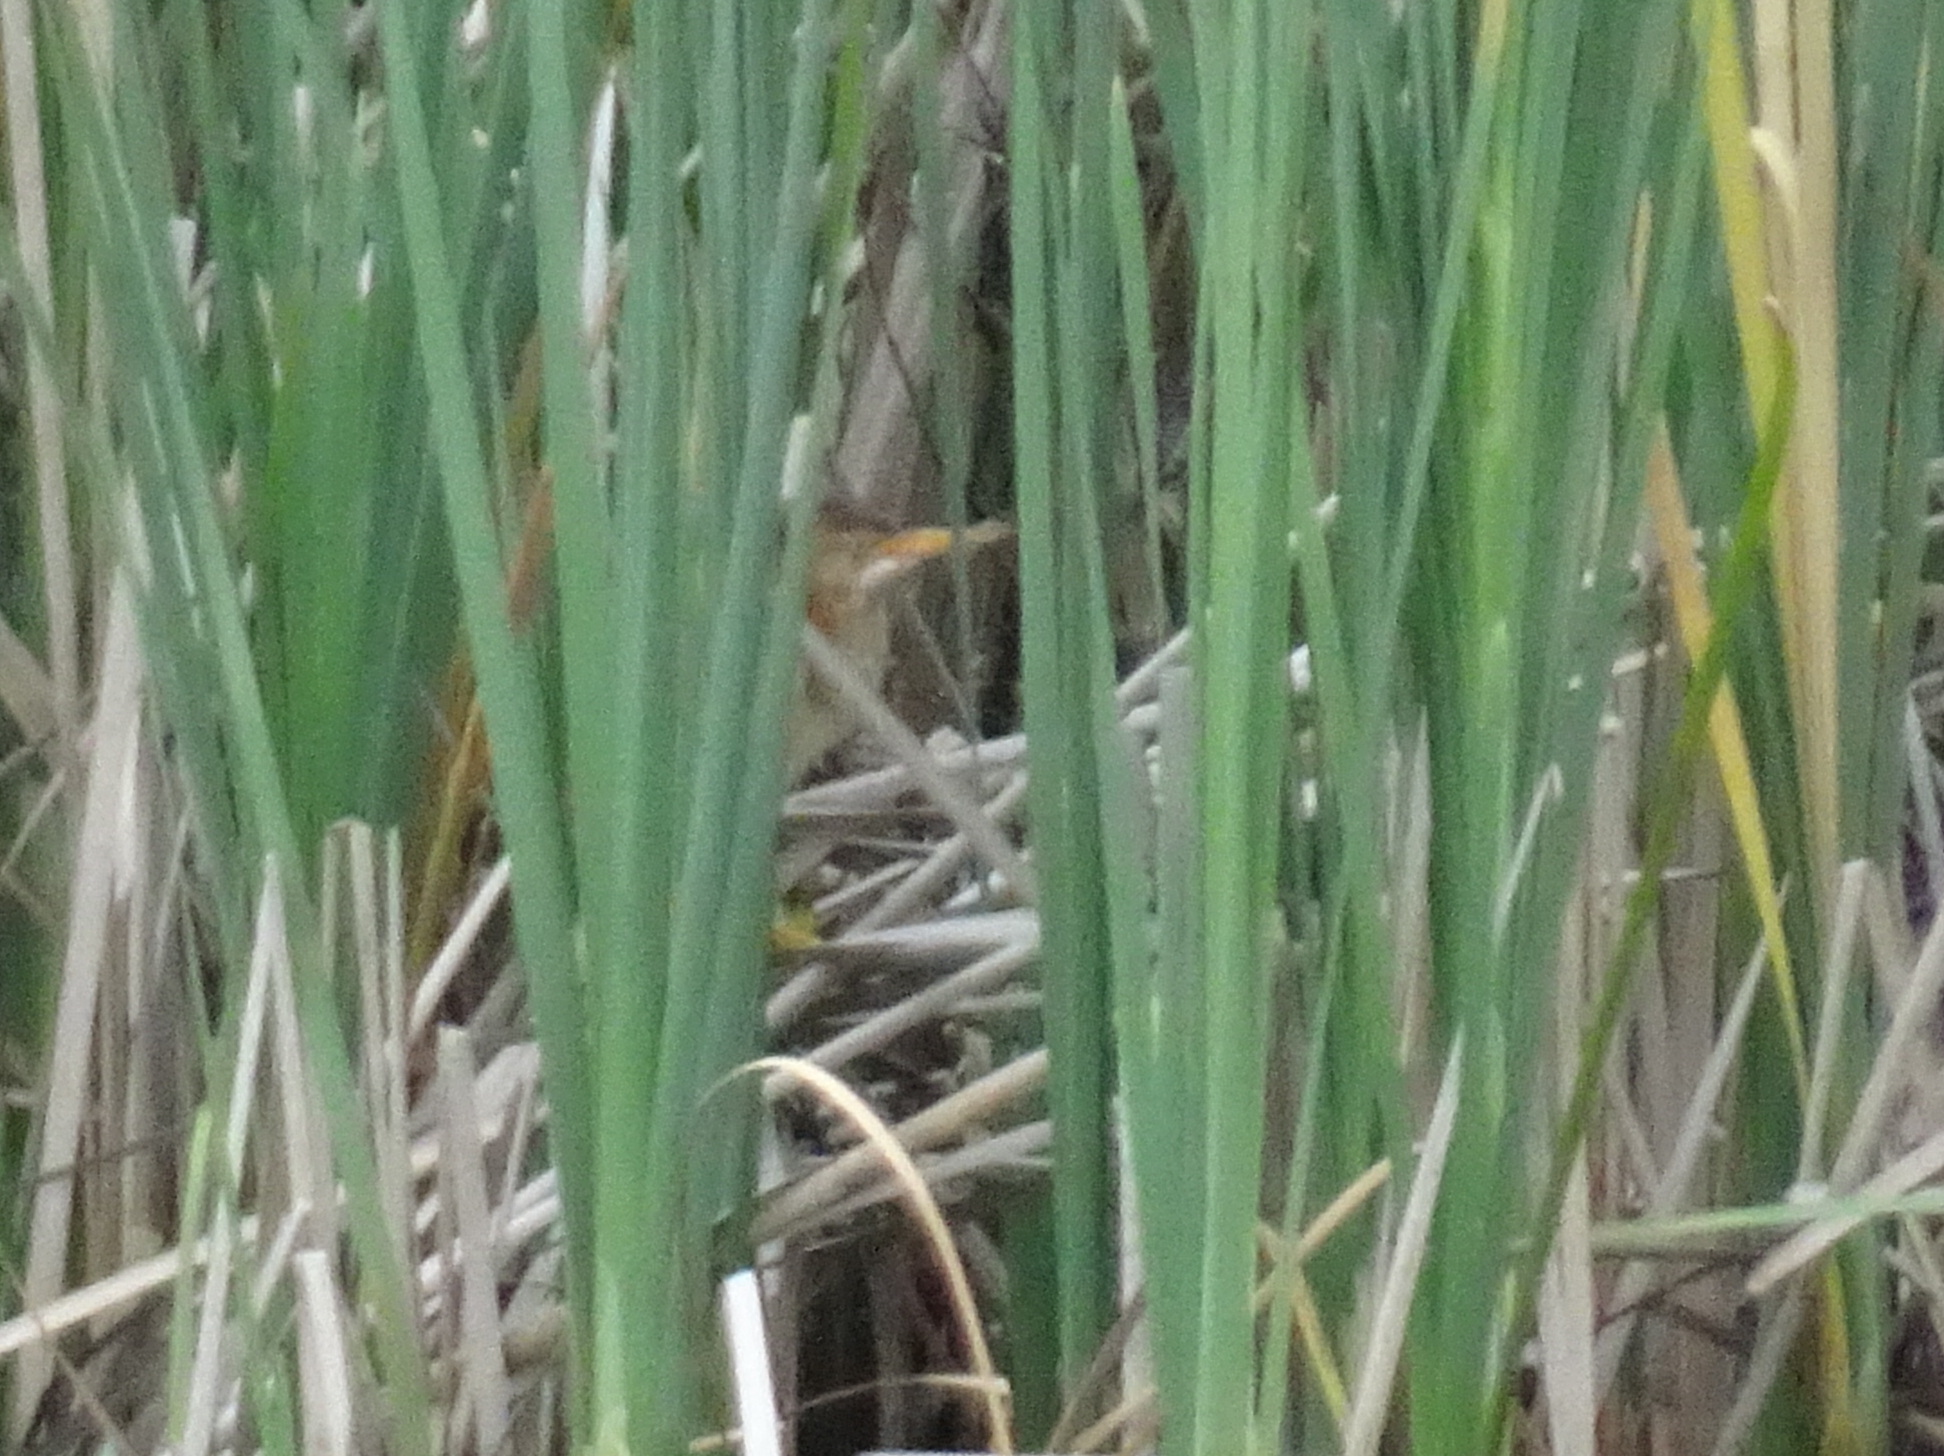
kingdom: Animalia
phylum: Chordata
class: Aves
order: Pelecaniformes
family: Ardeidae
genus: Ixobrychus
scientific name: Ixobrychus exilis
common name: Least bittern
